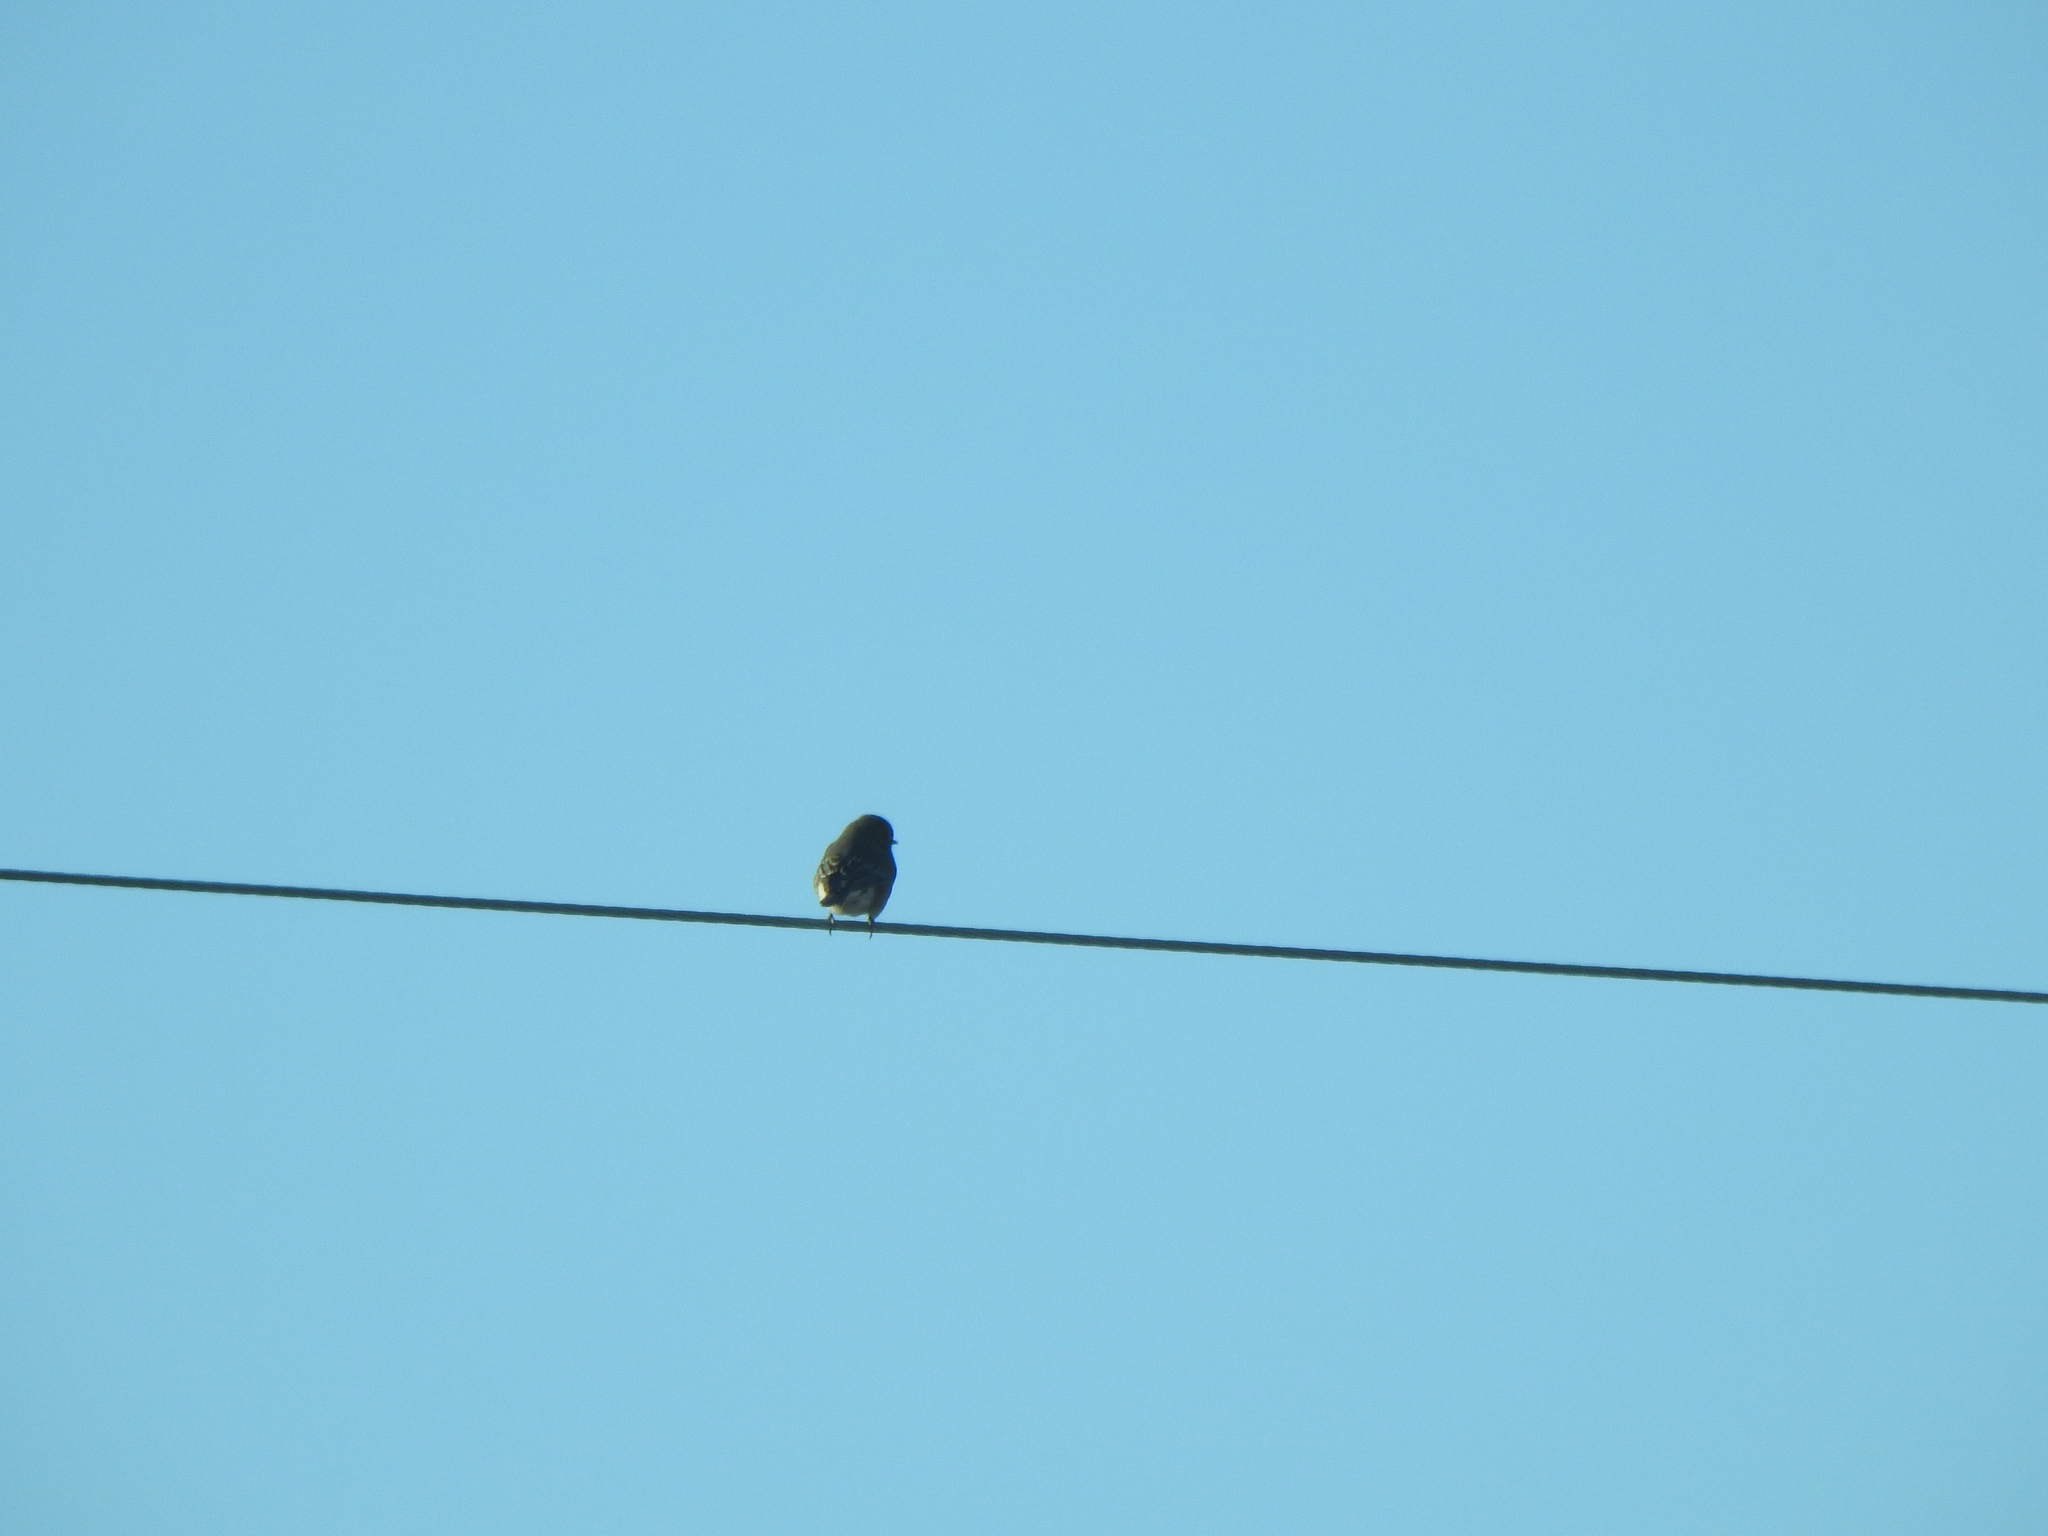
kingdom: Animalia
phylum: Chordata
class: Aves
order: Passeriformes
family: Turdidae
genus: Sialia
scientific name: Sialia sialis
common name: Eastern bluebird
